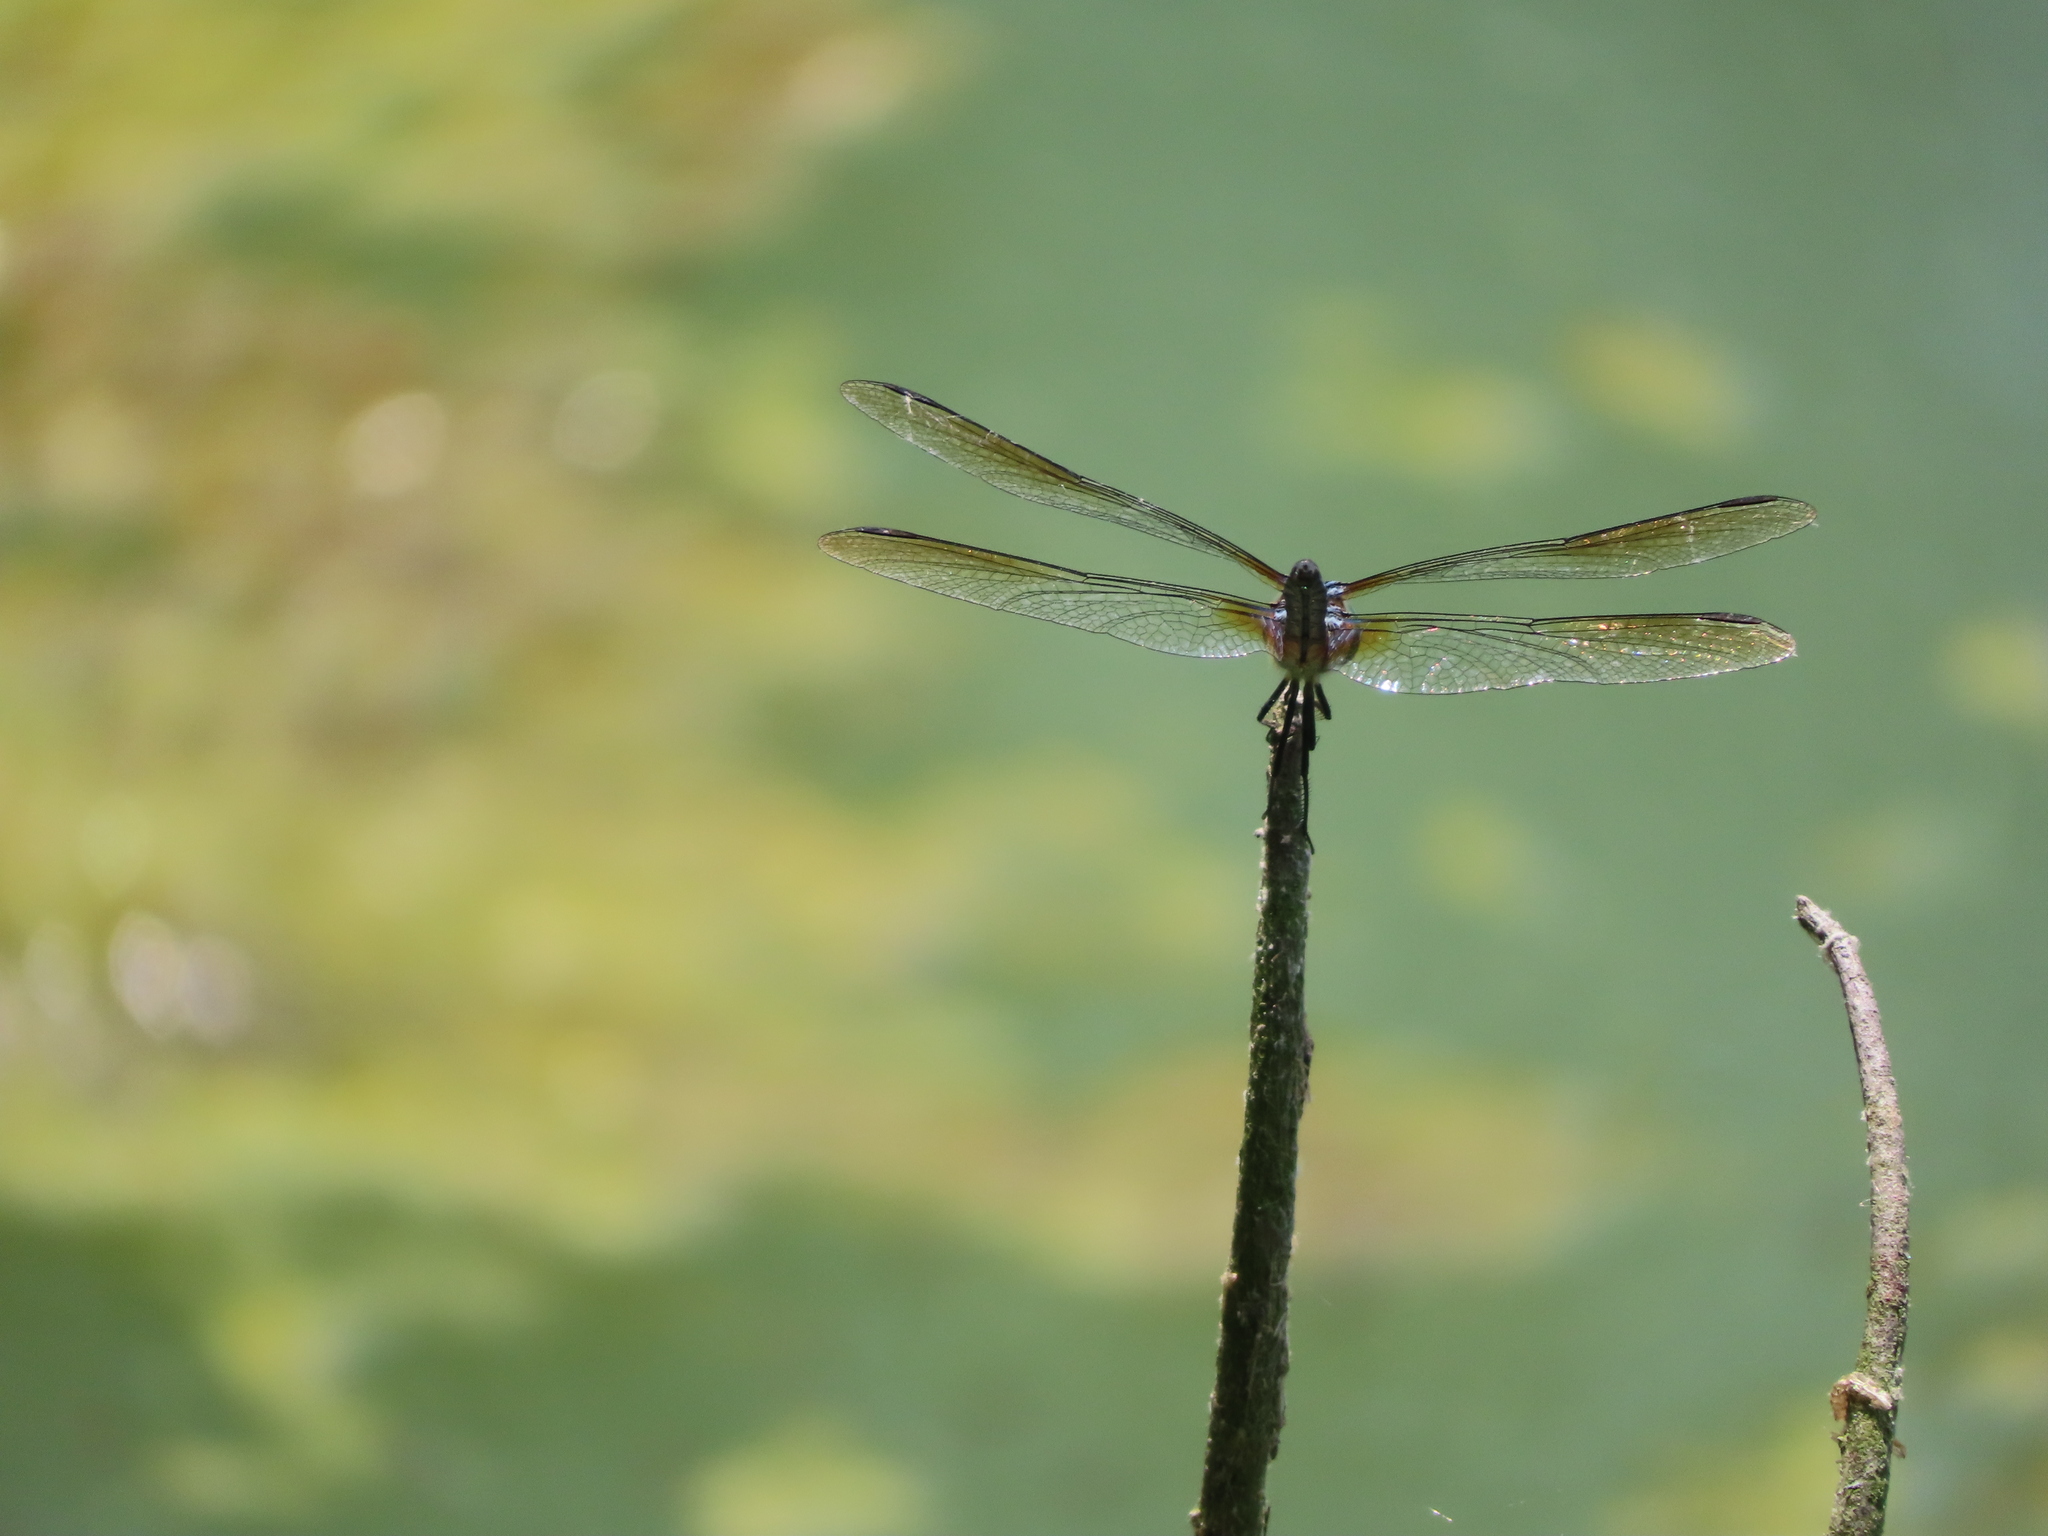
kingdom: Animalia
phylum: Arthropoda
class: Insecta
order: Odonata
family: Libellulidae
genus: Pachydiplax
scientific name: Pachydiplax longipennis
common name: Blue dasher
